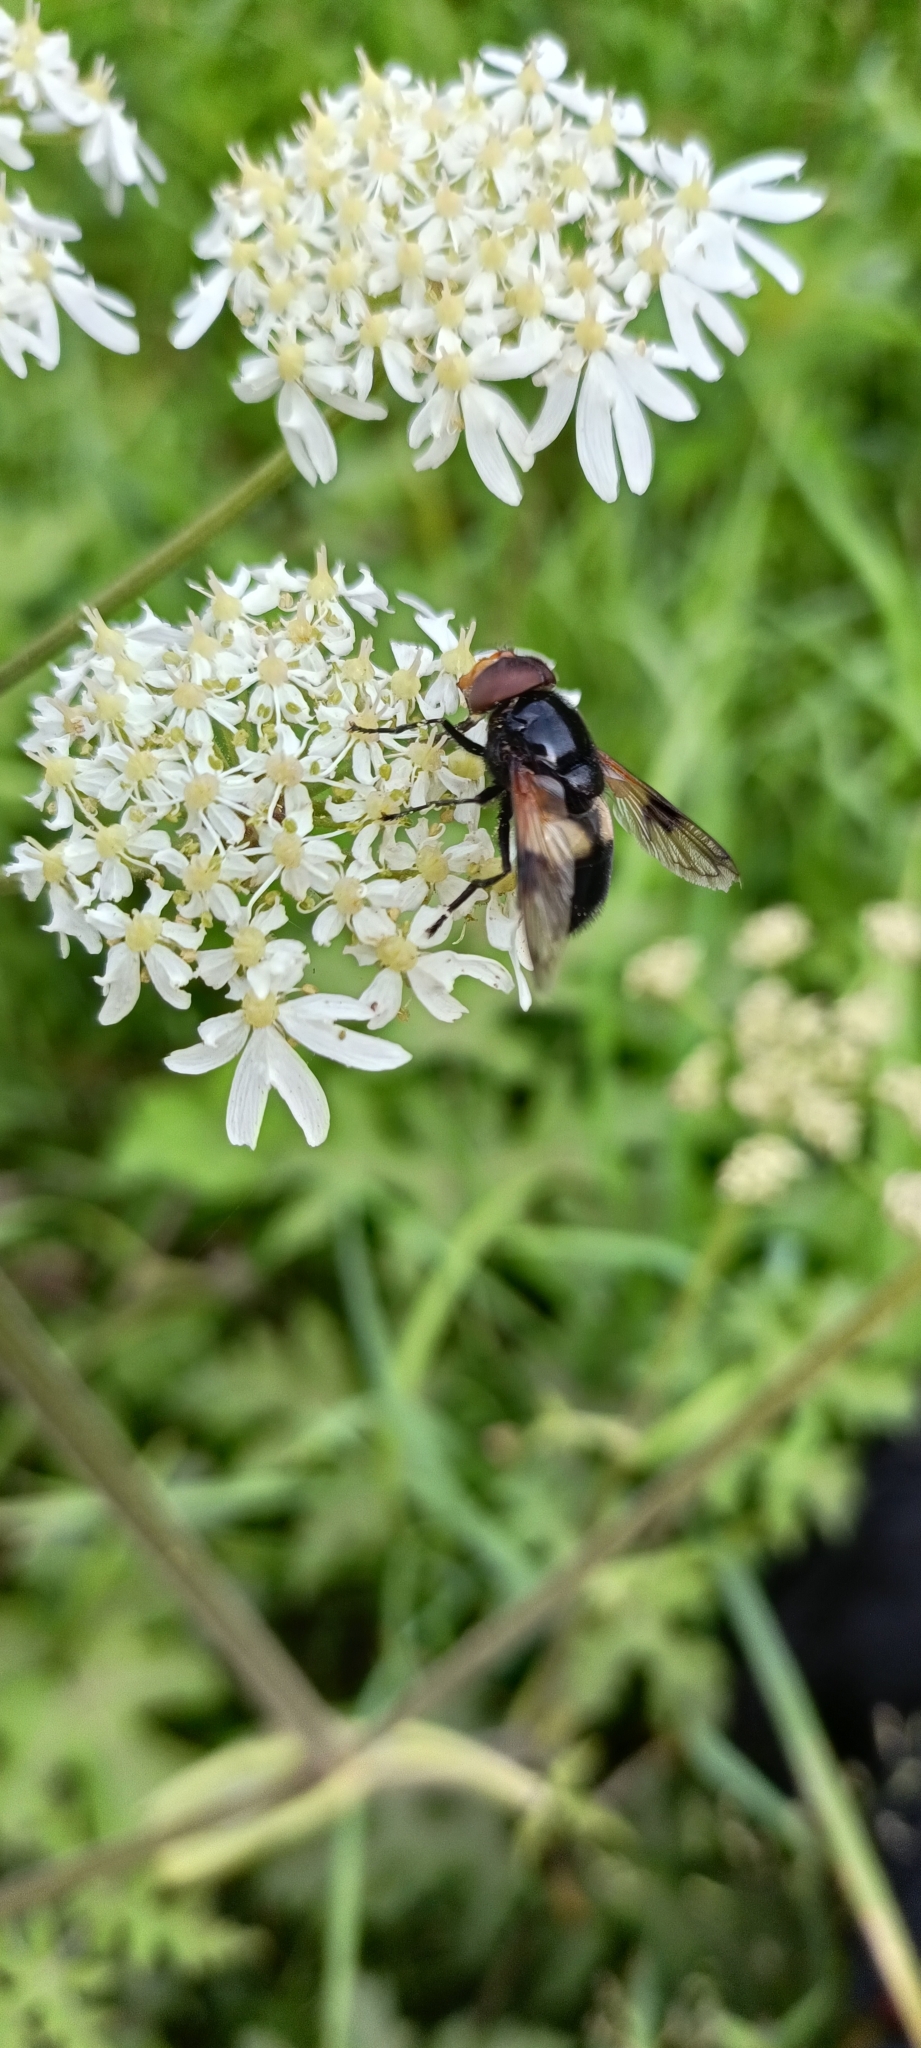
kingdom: Animalia
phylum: Arthropoda
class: Insecta
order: Diptera
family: Syrphidae
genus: Volucella
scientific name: Volucella pellucens
